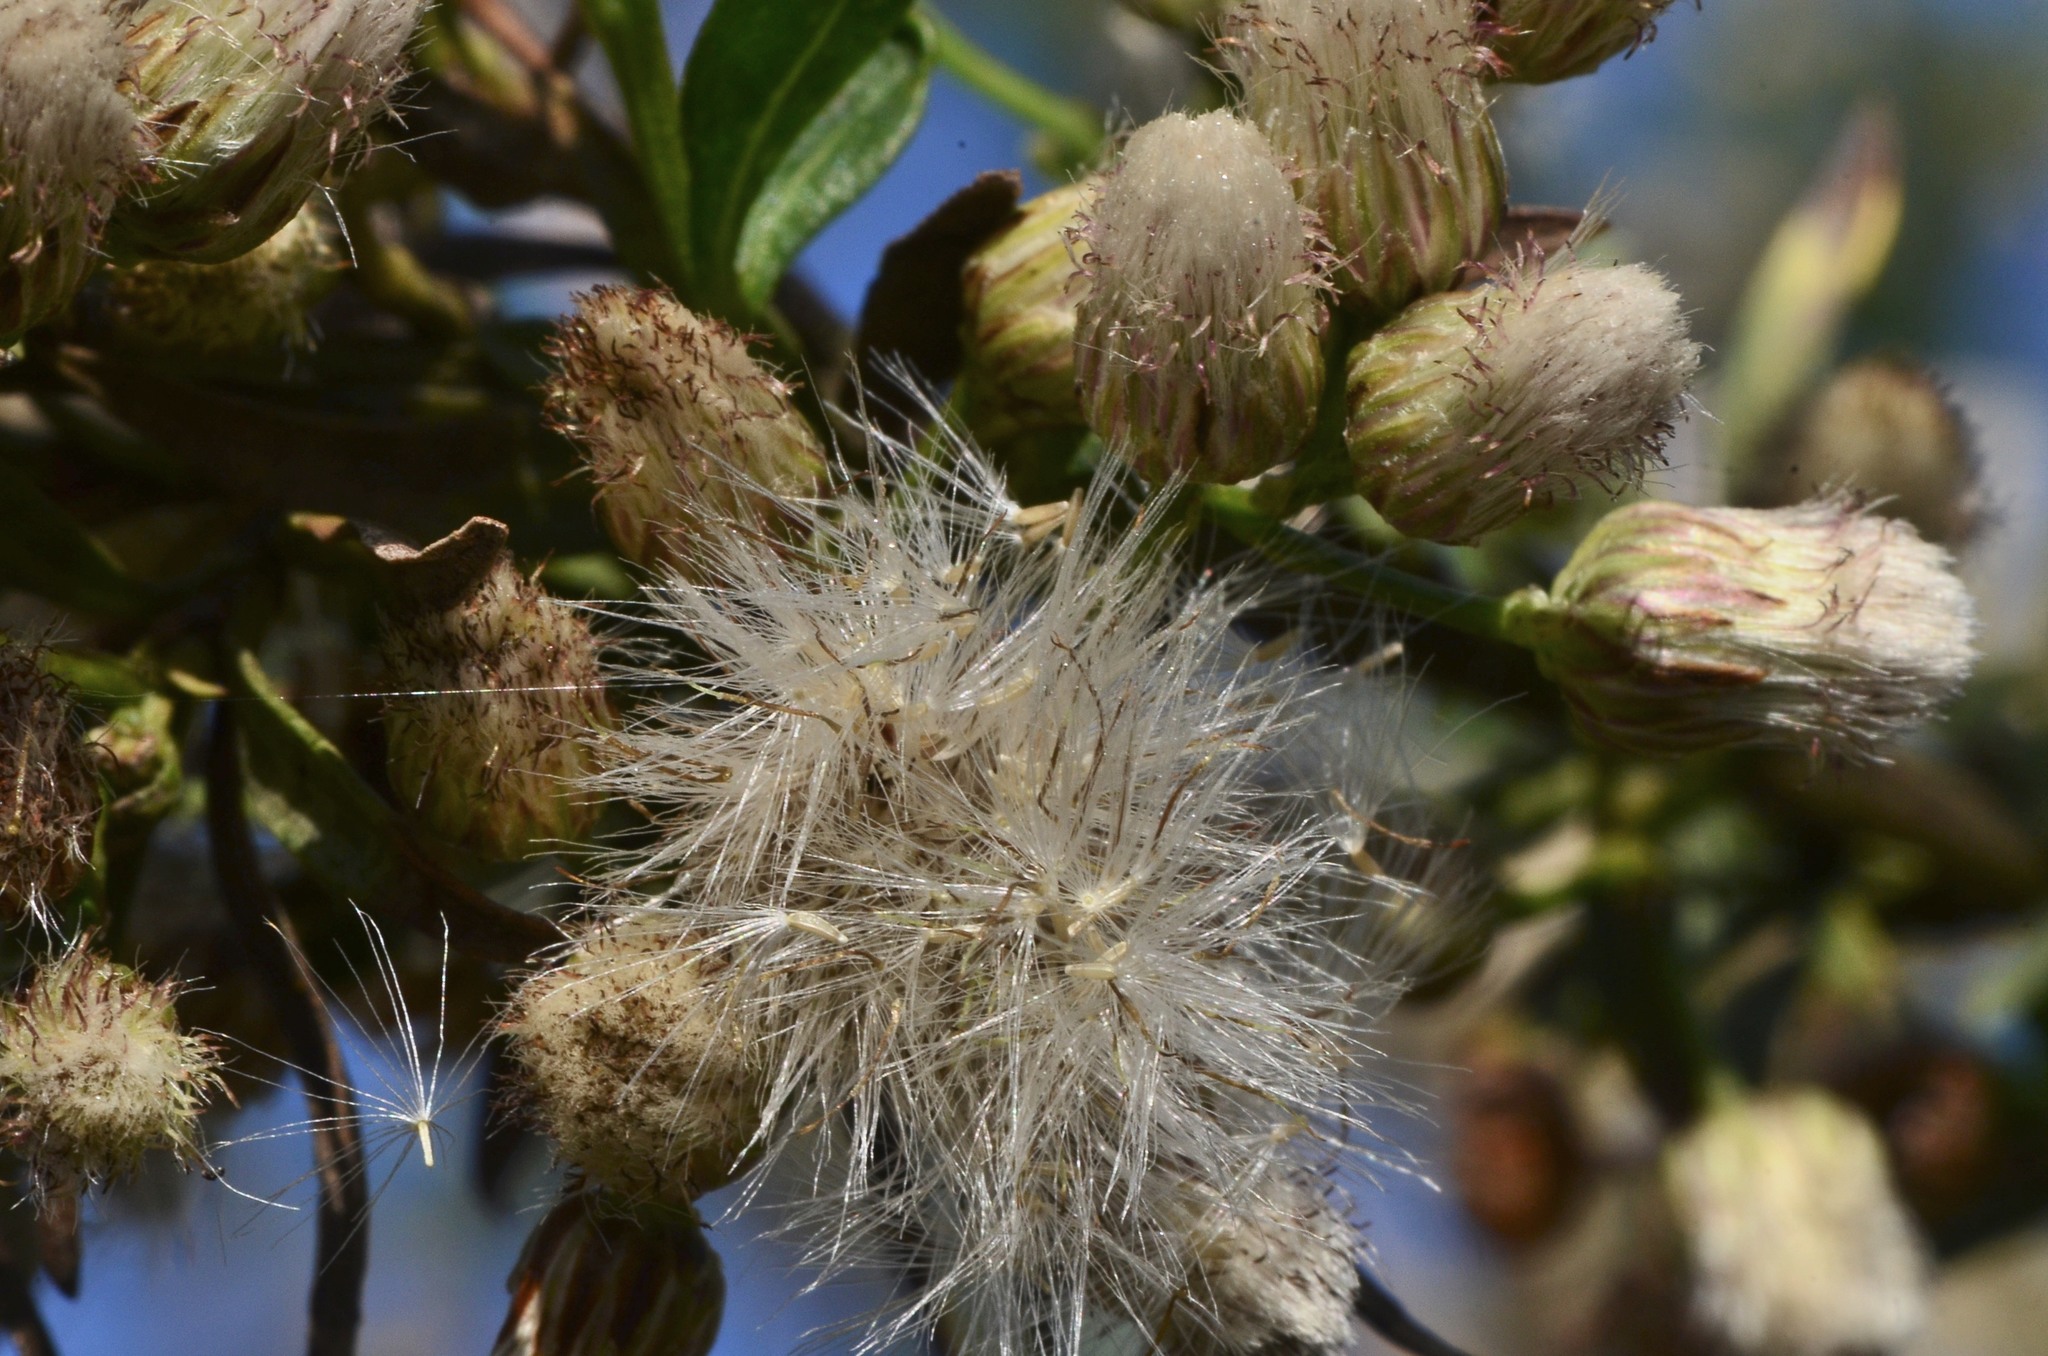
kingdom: Plantae
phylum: Tracheophyta
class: Magnoliopsida
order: Asterales
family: Asteraceae
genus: Baccharis
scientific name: Baccharis salicifolia
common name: Sticky baccharis
